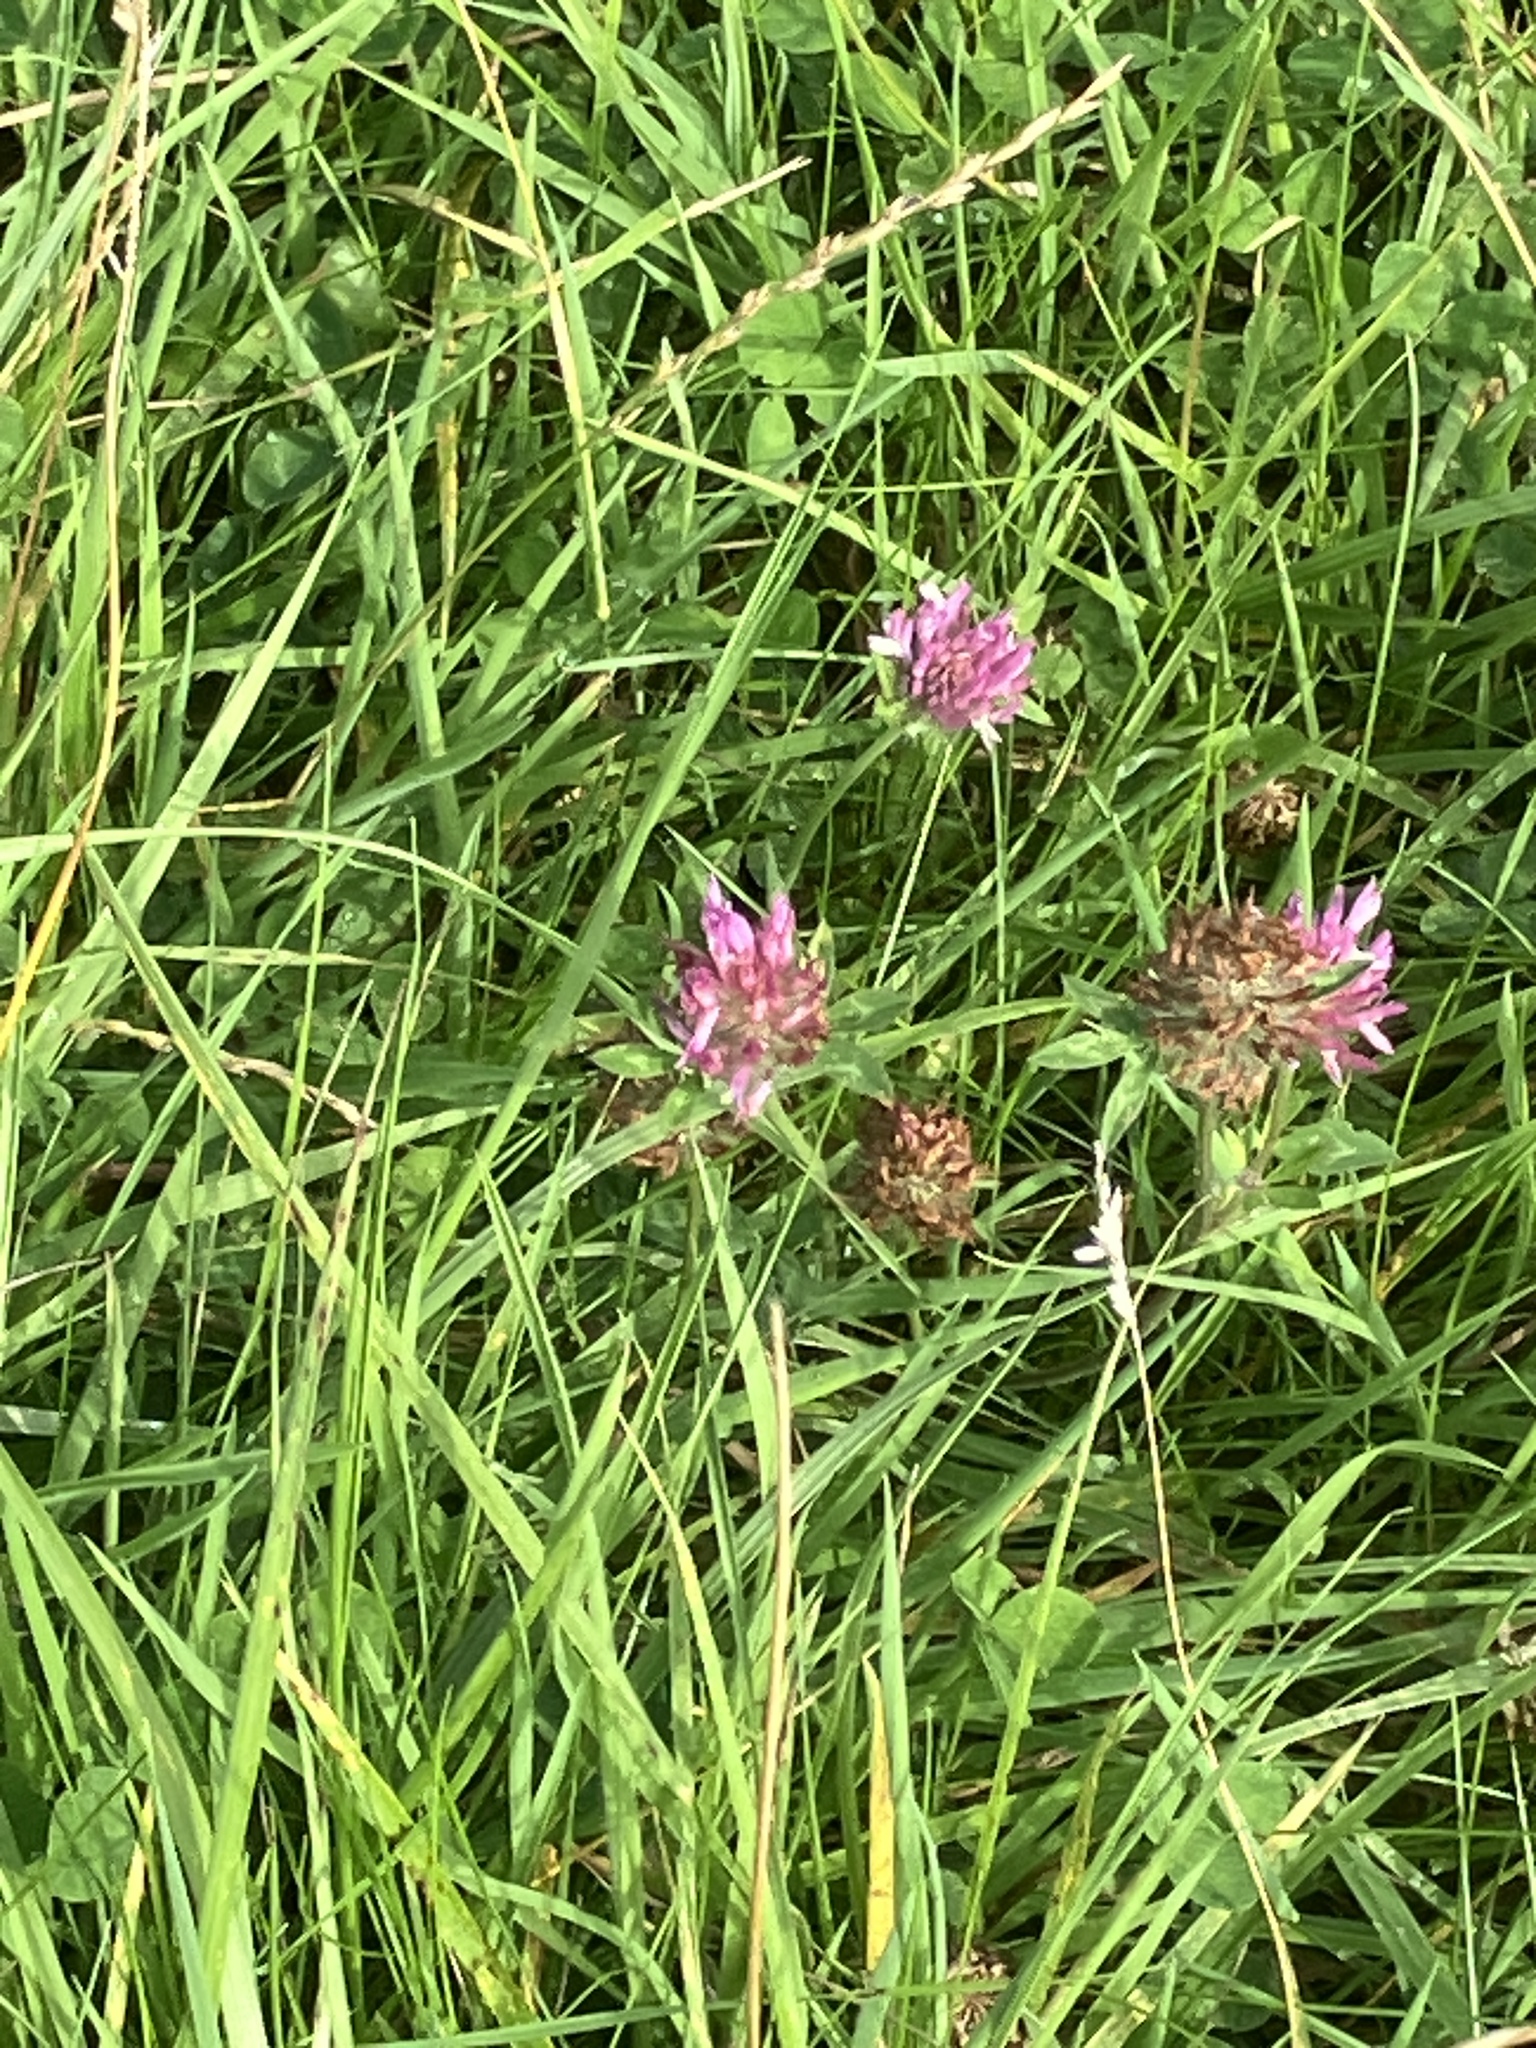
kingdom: Plantae
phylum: Tracheophyta
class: Magnoliopsida
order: Fabales
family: Fabaceae
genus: Trifolium
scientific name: Trifolium pratense
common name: Red clover
